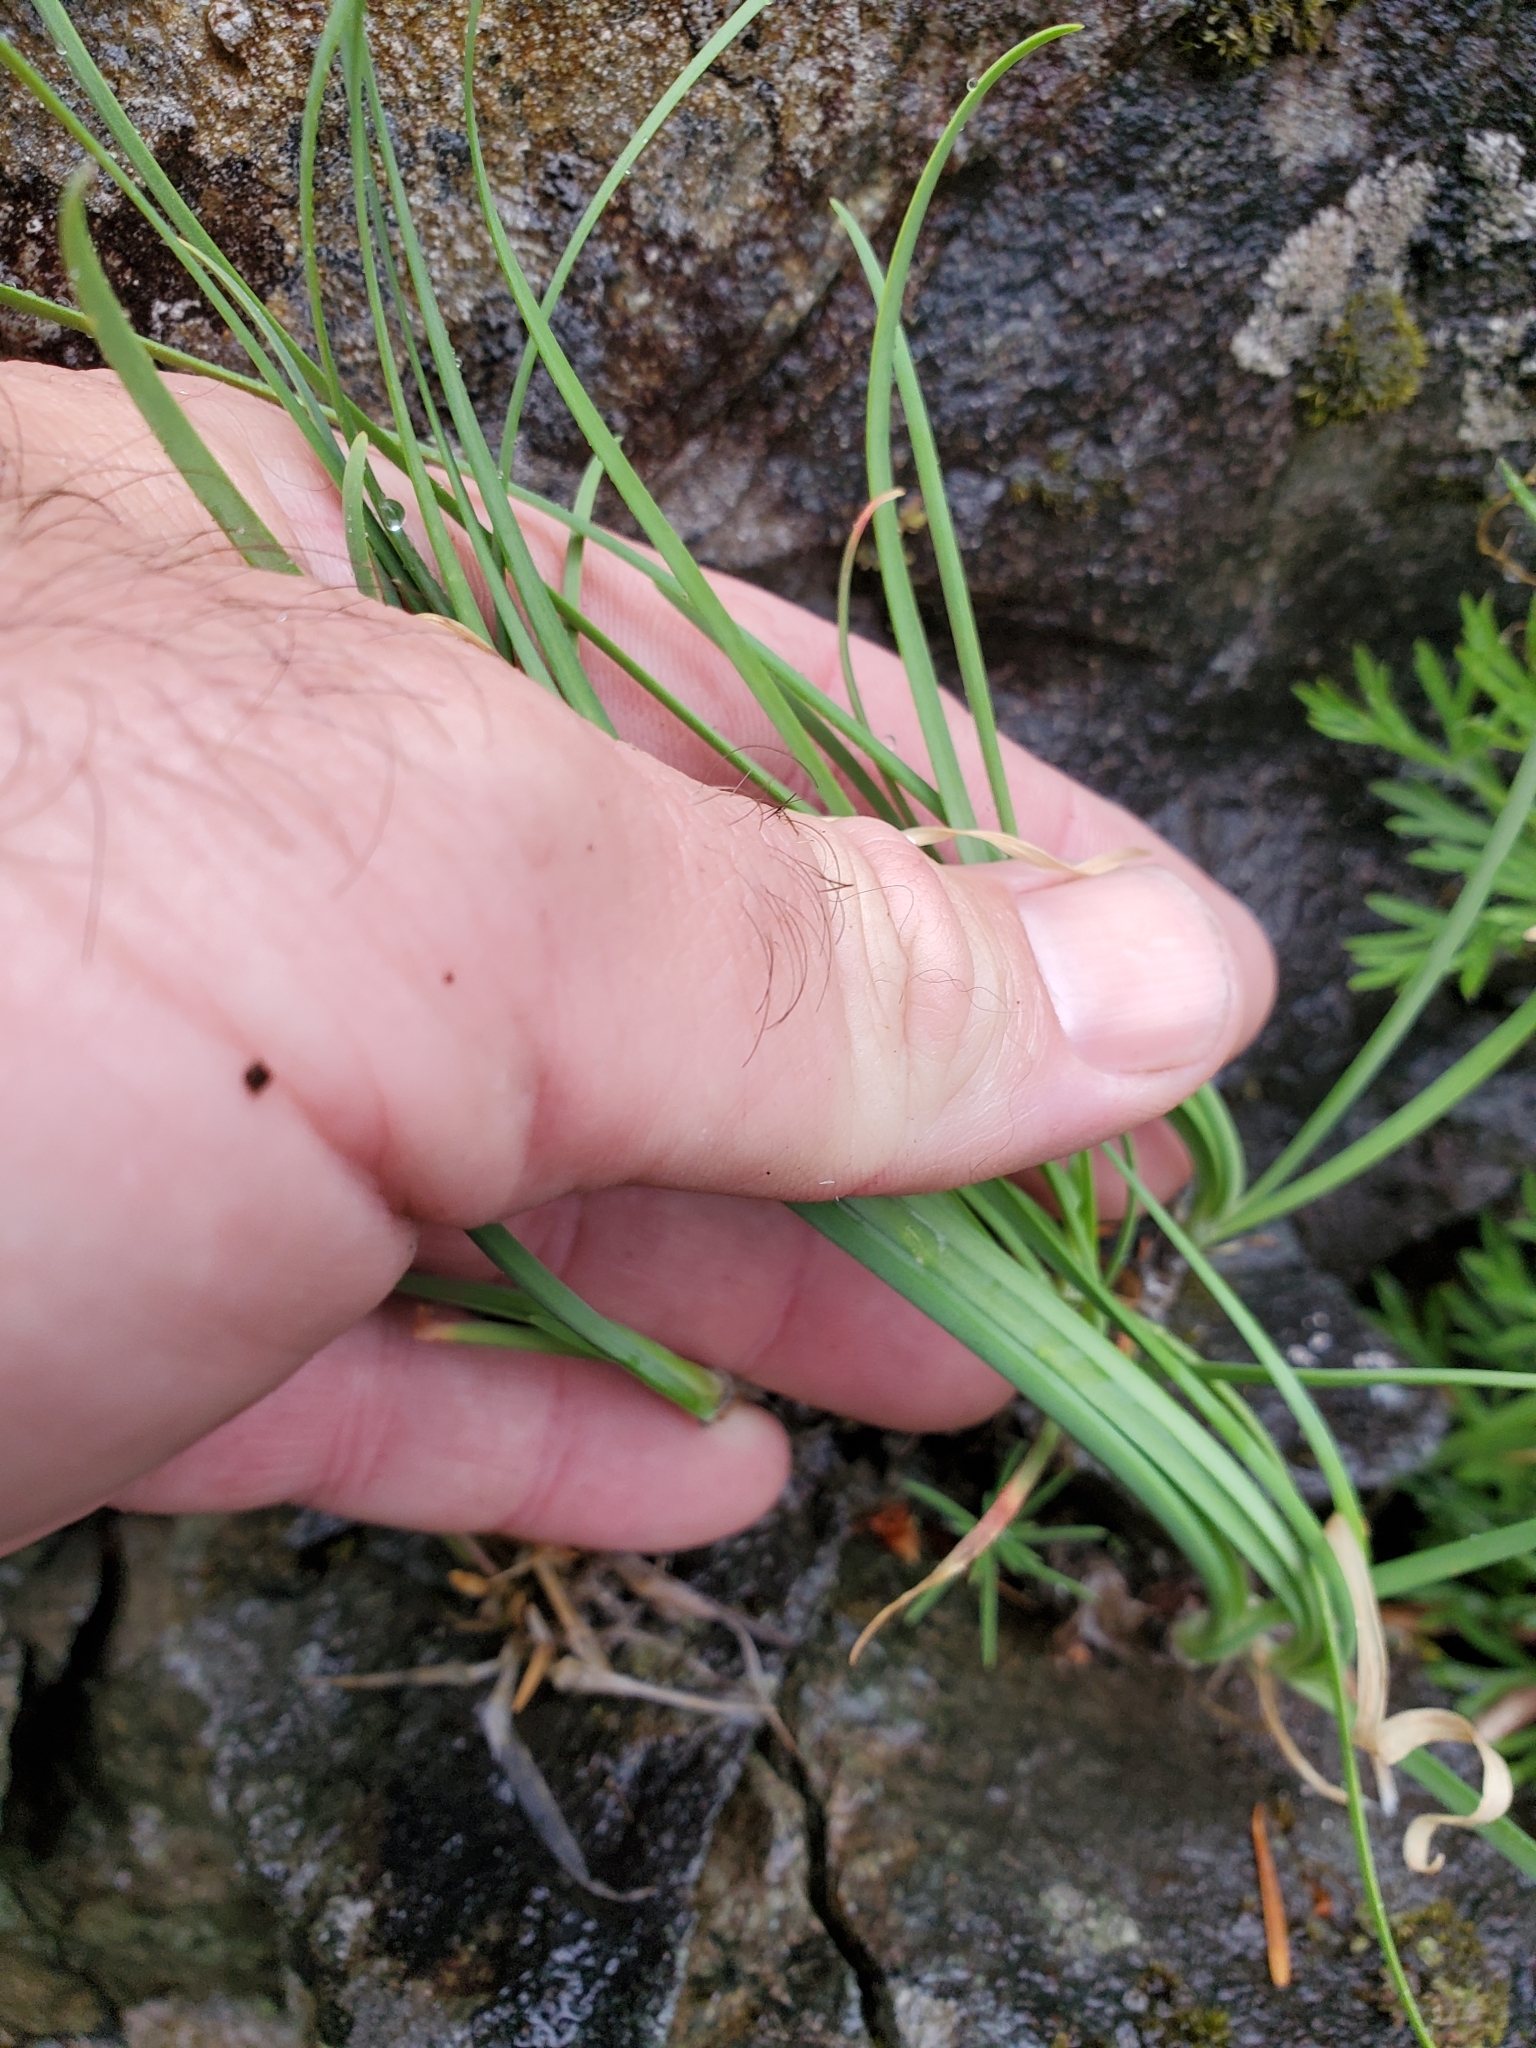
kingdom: Plantae
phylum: Tracheophyta
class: Liliopsida
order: Asparagales
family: Amaryllidaceae
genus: Allium
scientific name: Allium cernuum
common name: Nodding onion
